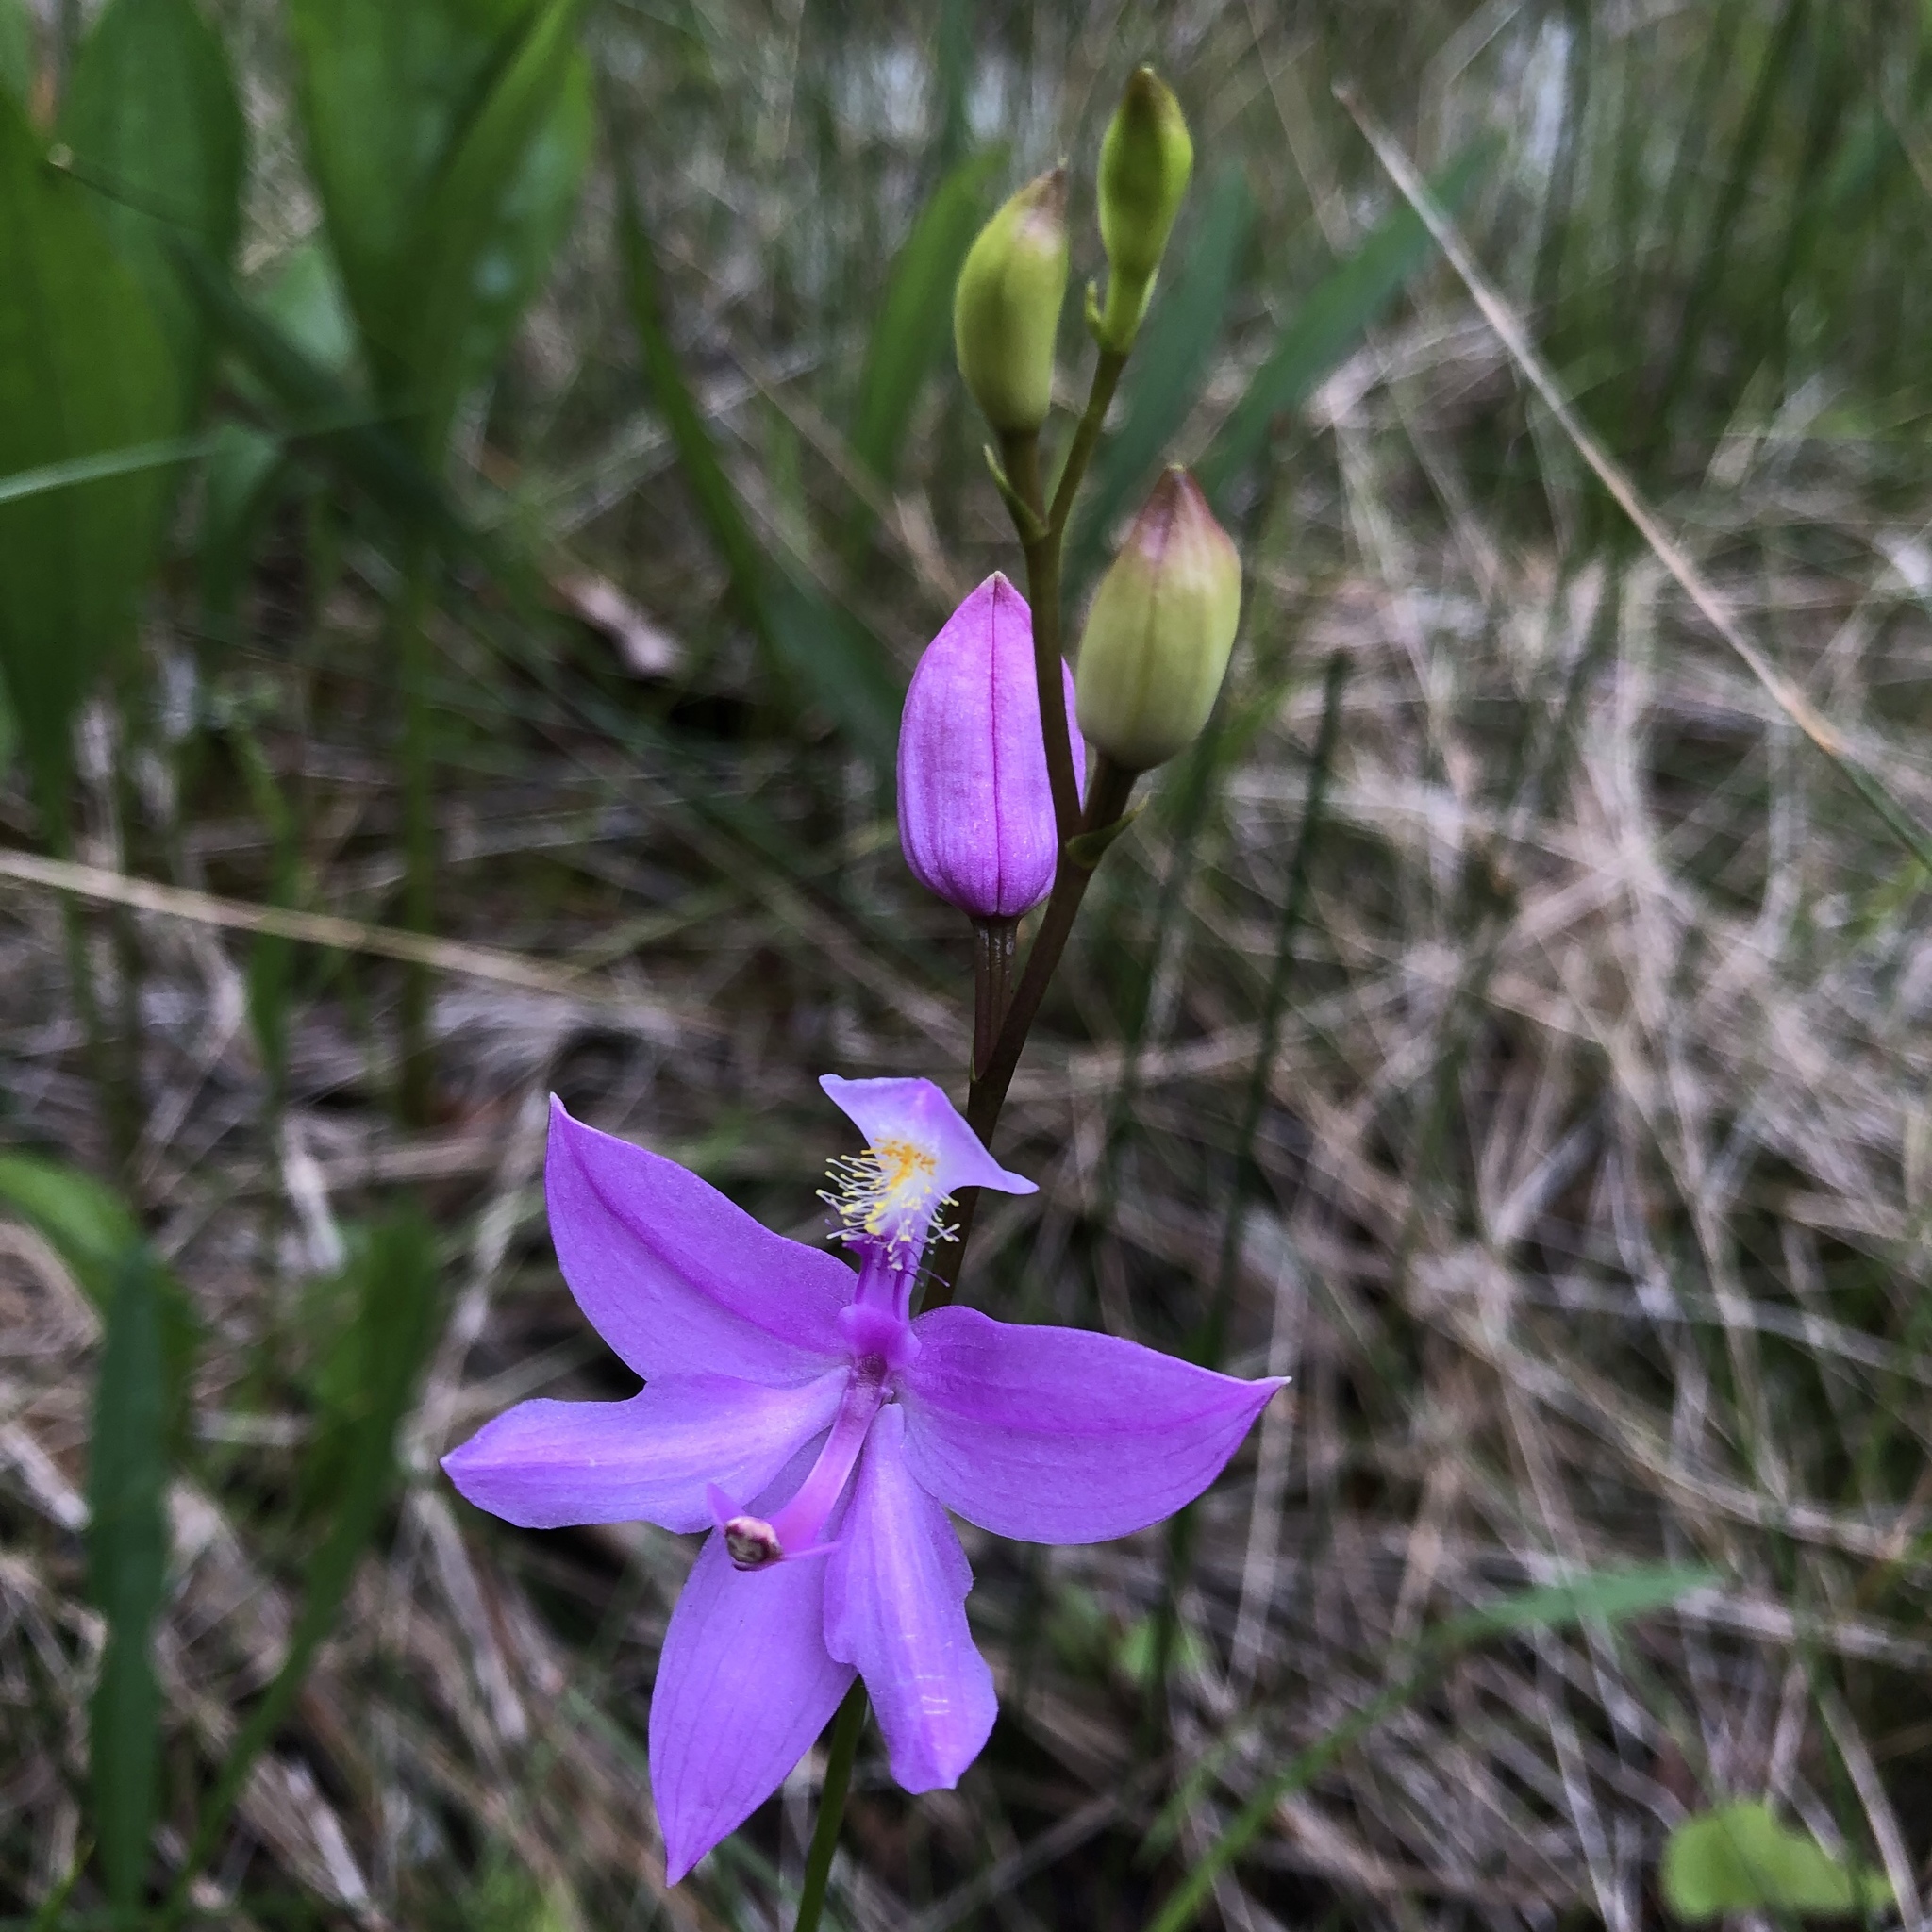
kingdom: Plantae
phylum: Tracheophyta
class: Liliopsida
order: Asparagales
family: Orchidaceae
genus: Calopogon
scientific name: Calopogon tuberosus
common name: Grass-pink
